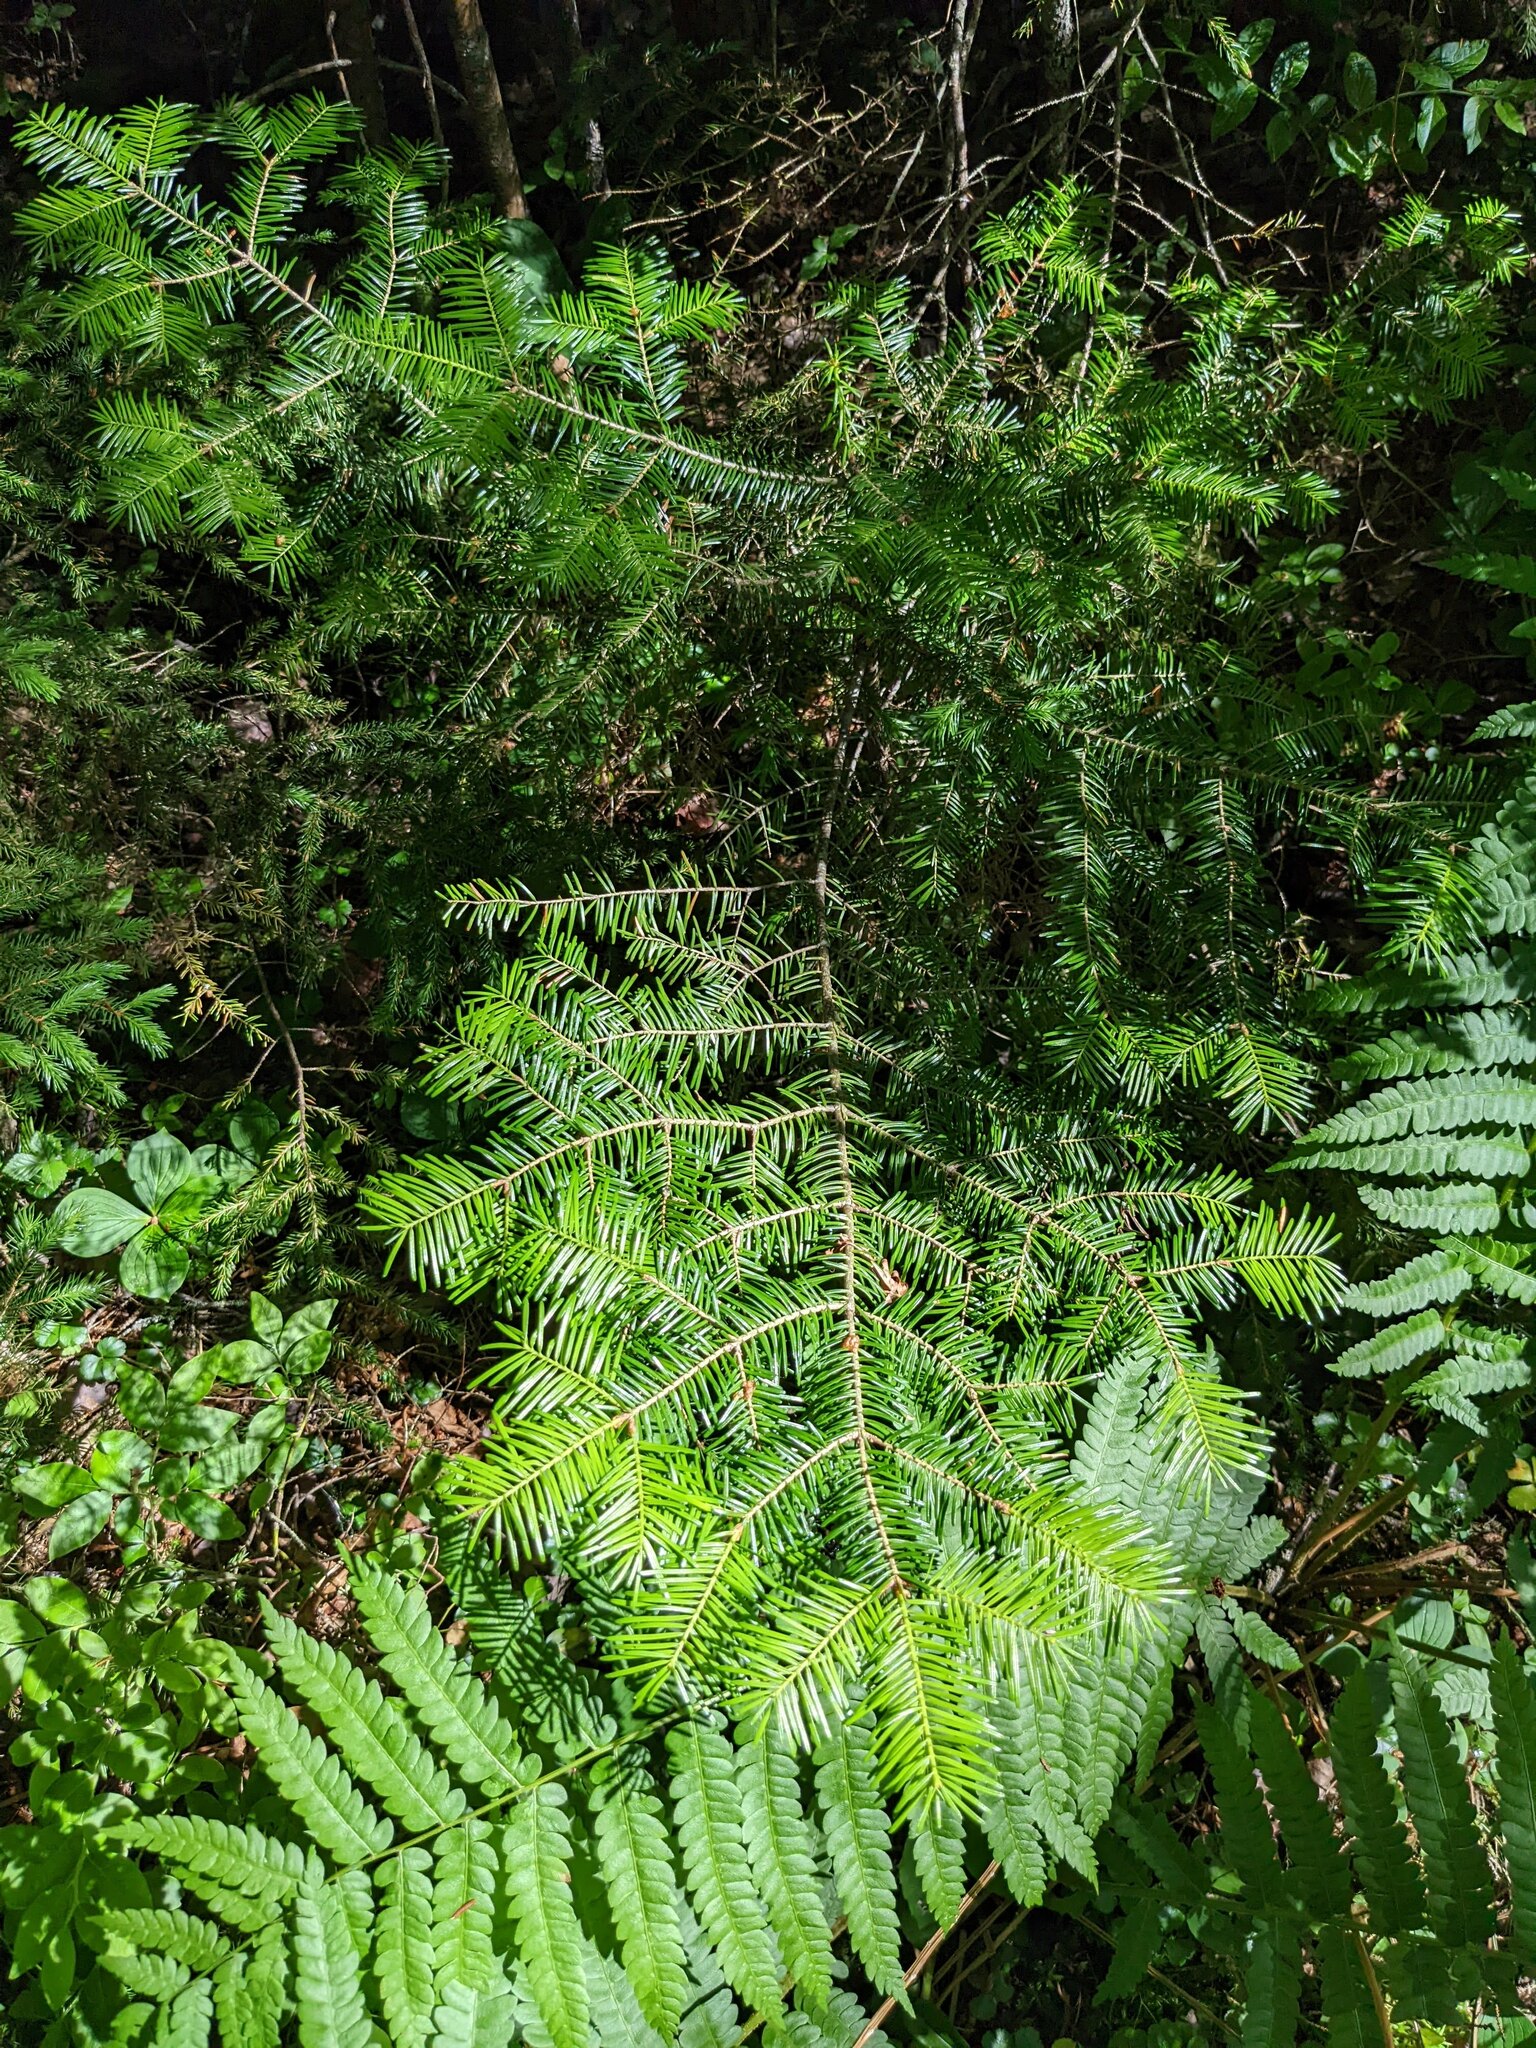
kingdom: Plantae
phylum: Tracheophyta
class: Pinopsida
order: Pinales
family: Pinaceae
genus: Abies
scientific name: Abies balsamea
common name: Balsam fir
